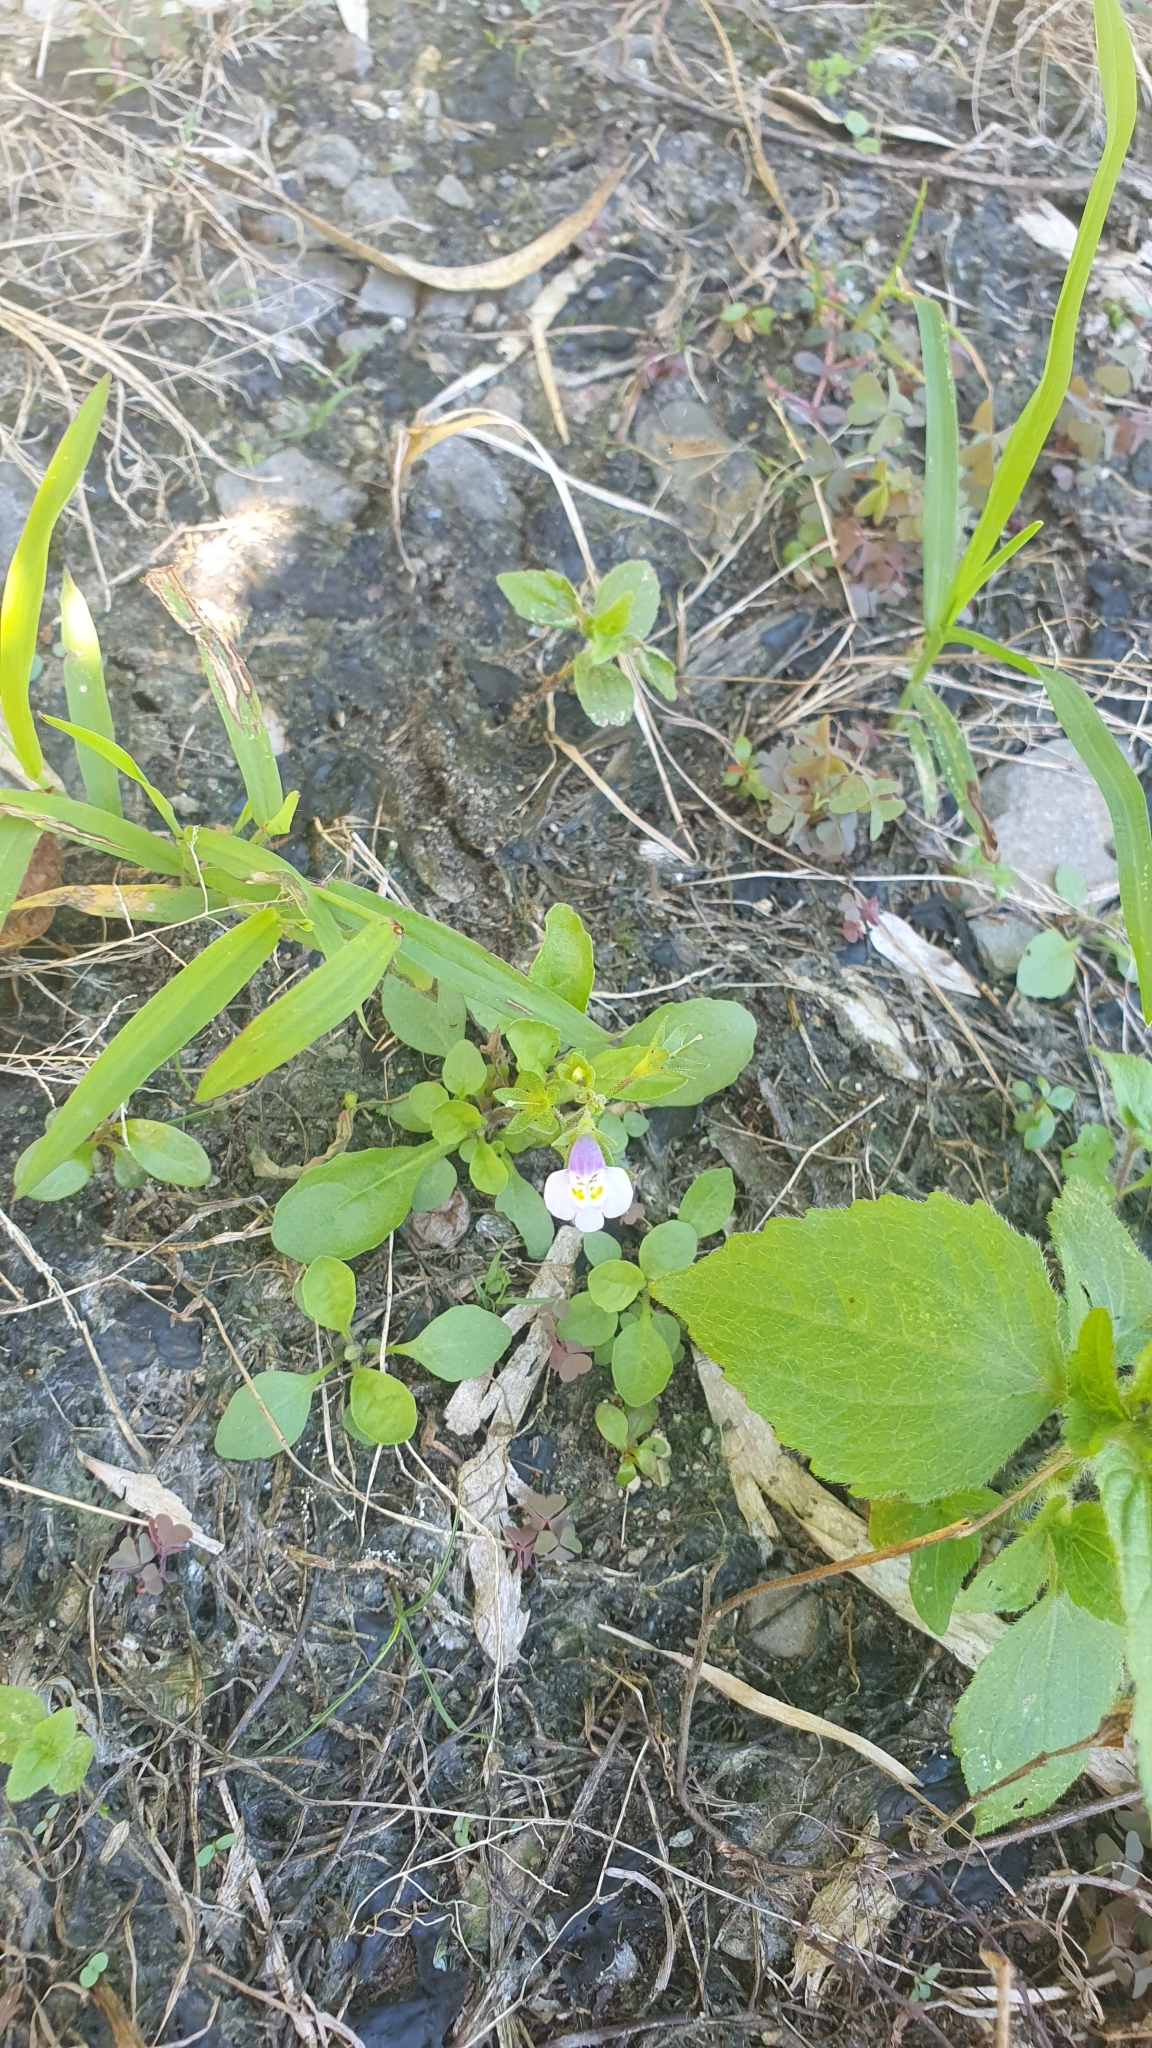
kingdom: Plantae
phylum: Tracheophyta
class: Magnoliopsida
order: Lamiales
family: Mazaceae
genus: Mazus
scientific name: Mazus pumilus
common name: Japanese mazus
